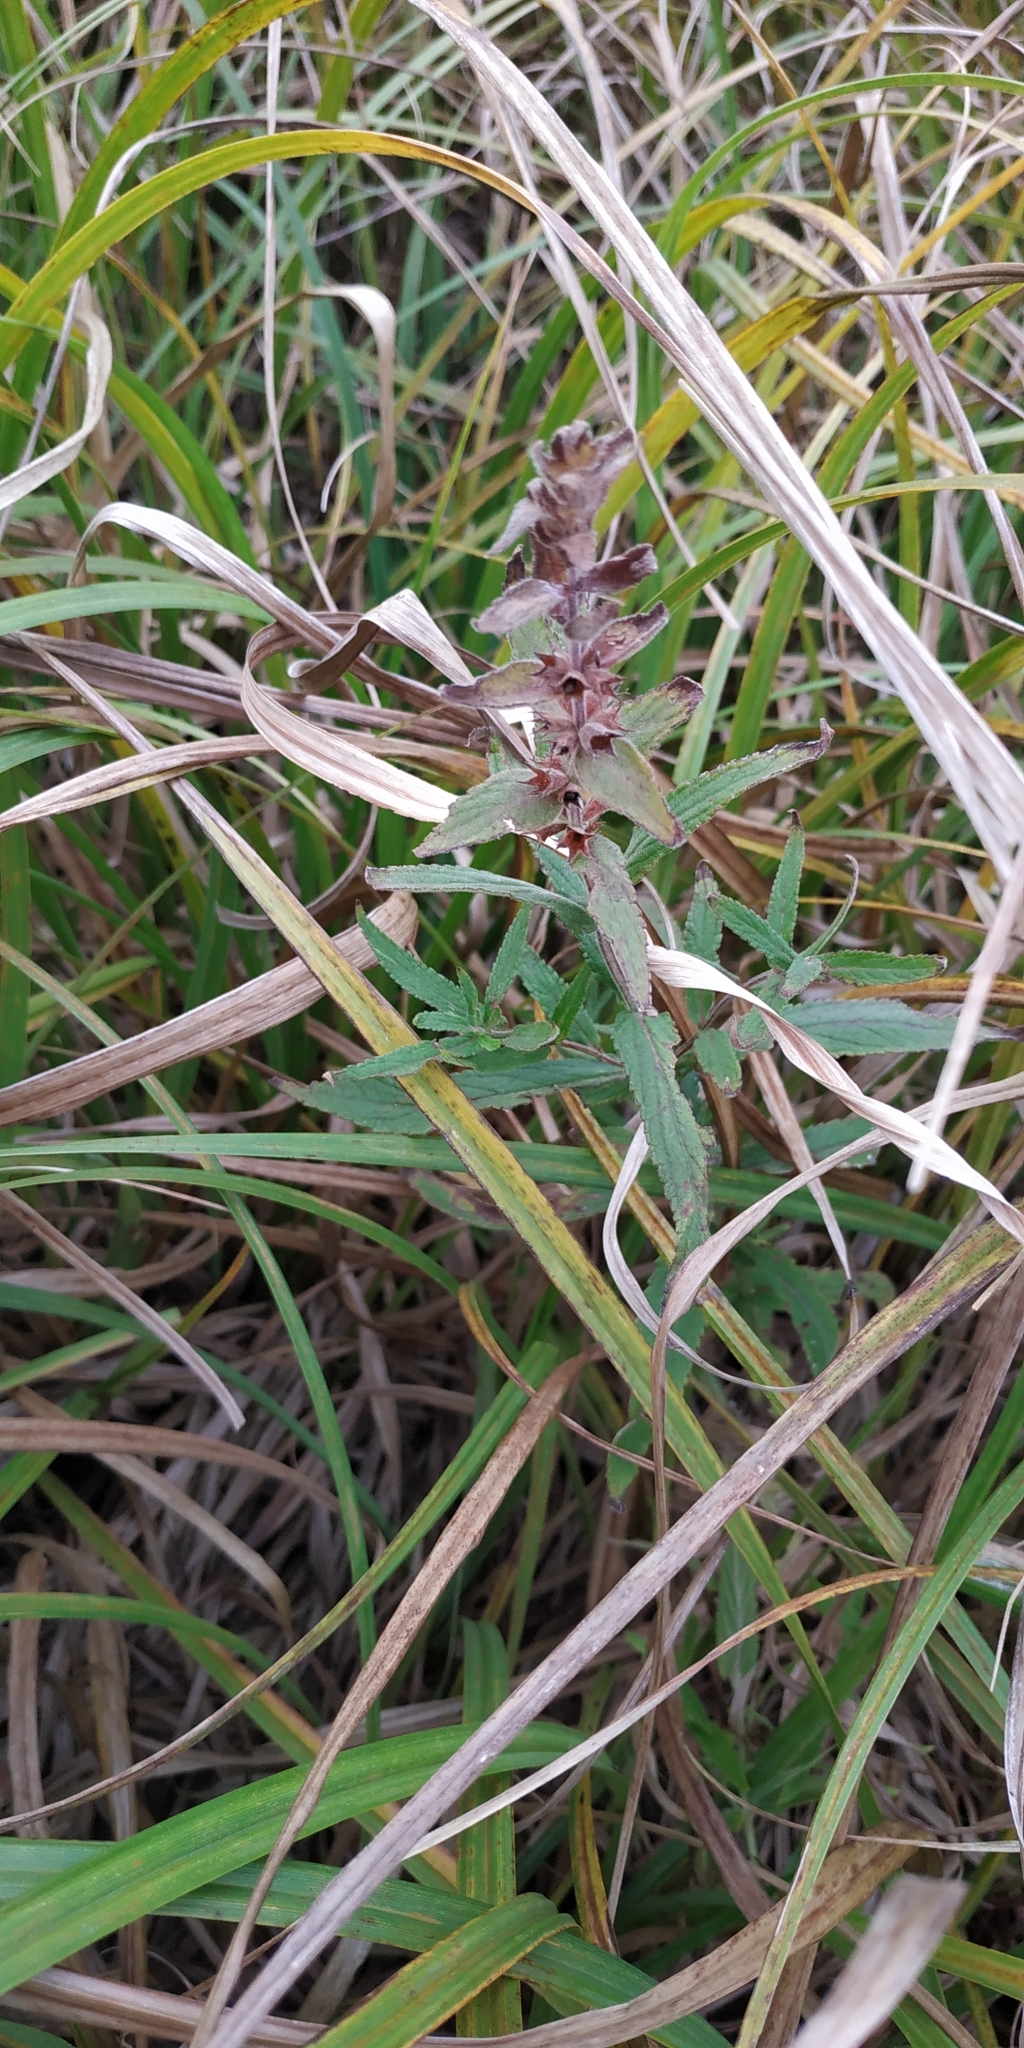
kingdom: Plantae
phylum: Tracheophyta
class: Magnoliopsida
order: Lamiales
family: Lamiaceae
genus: Stachys
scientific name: Stachys palustris
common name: Marsh woundwort
